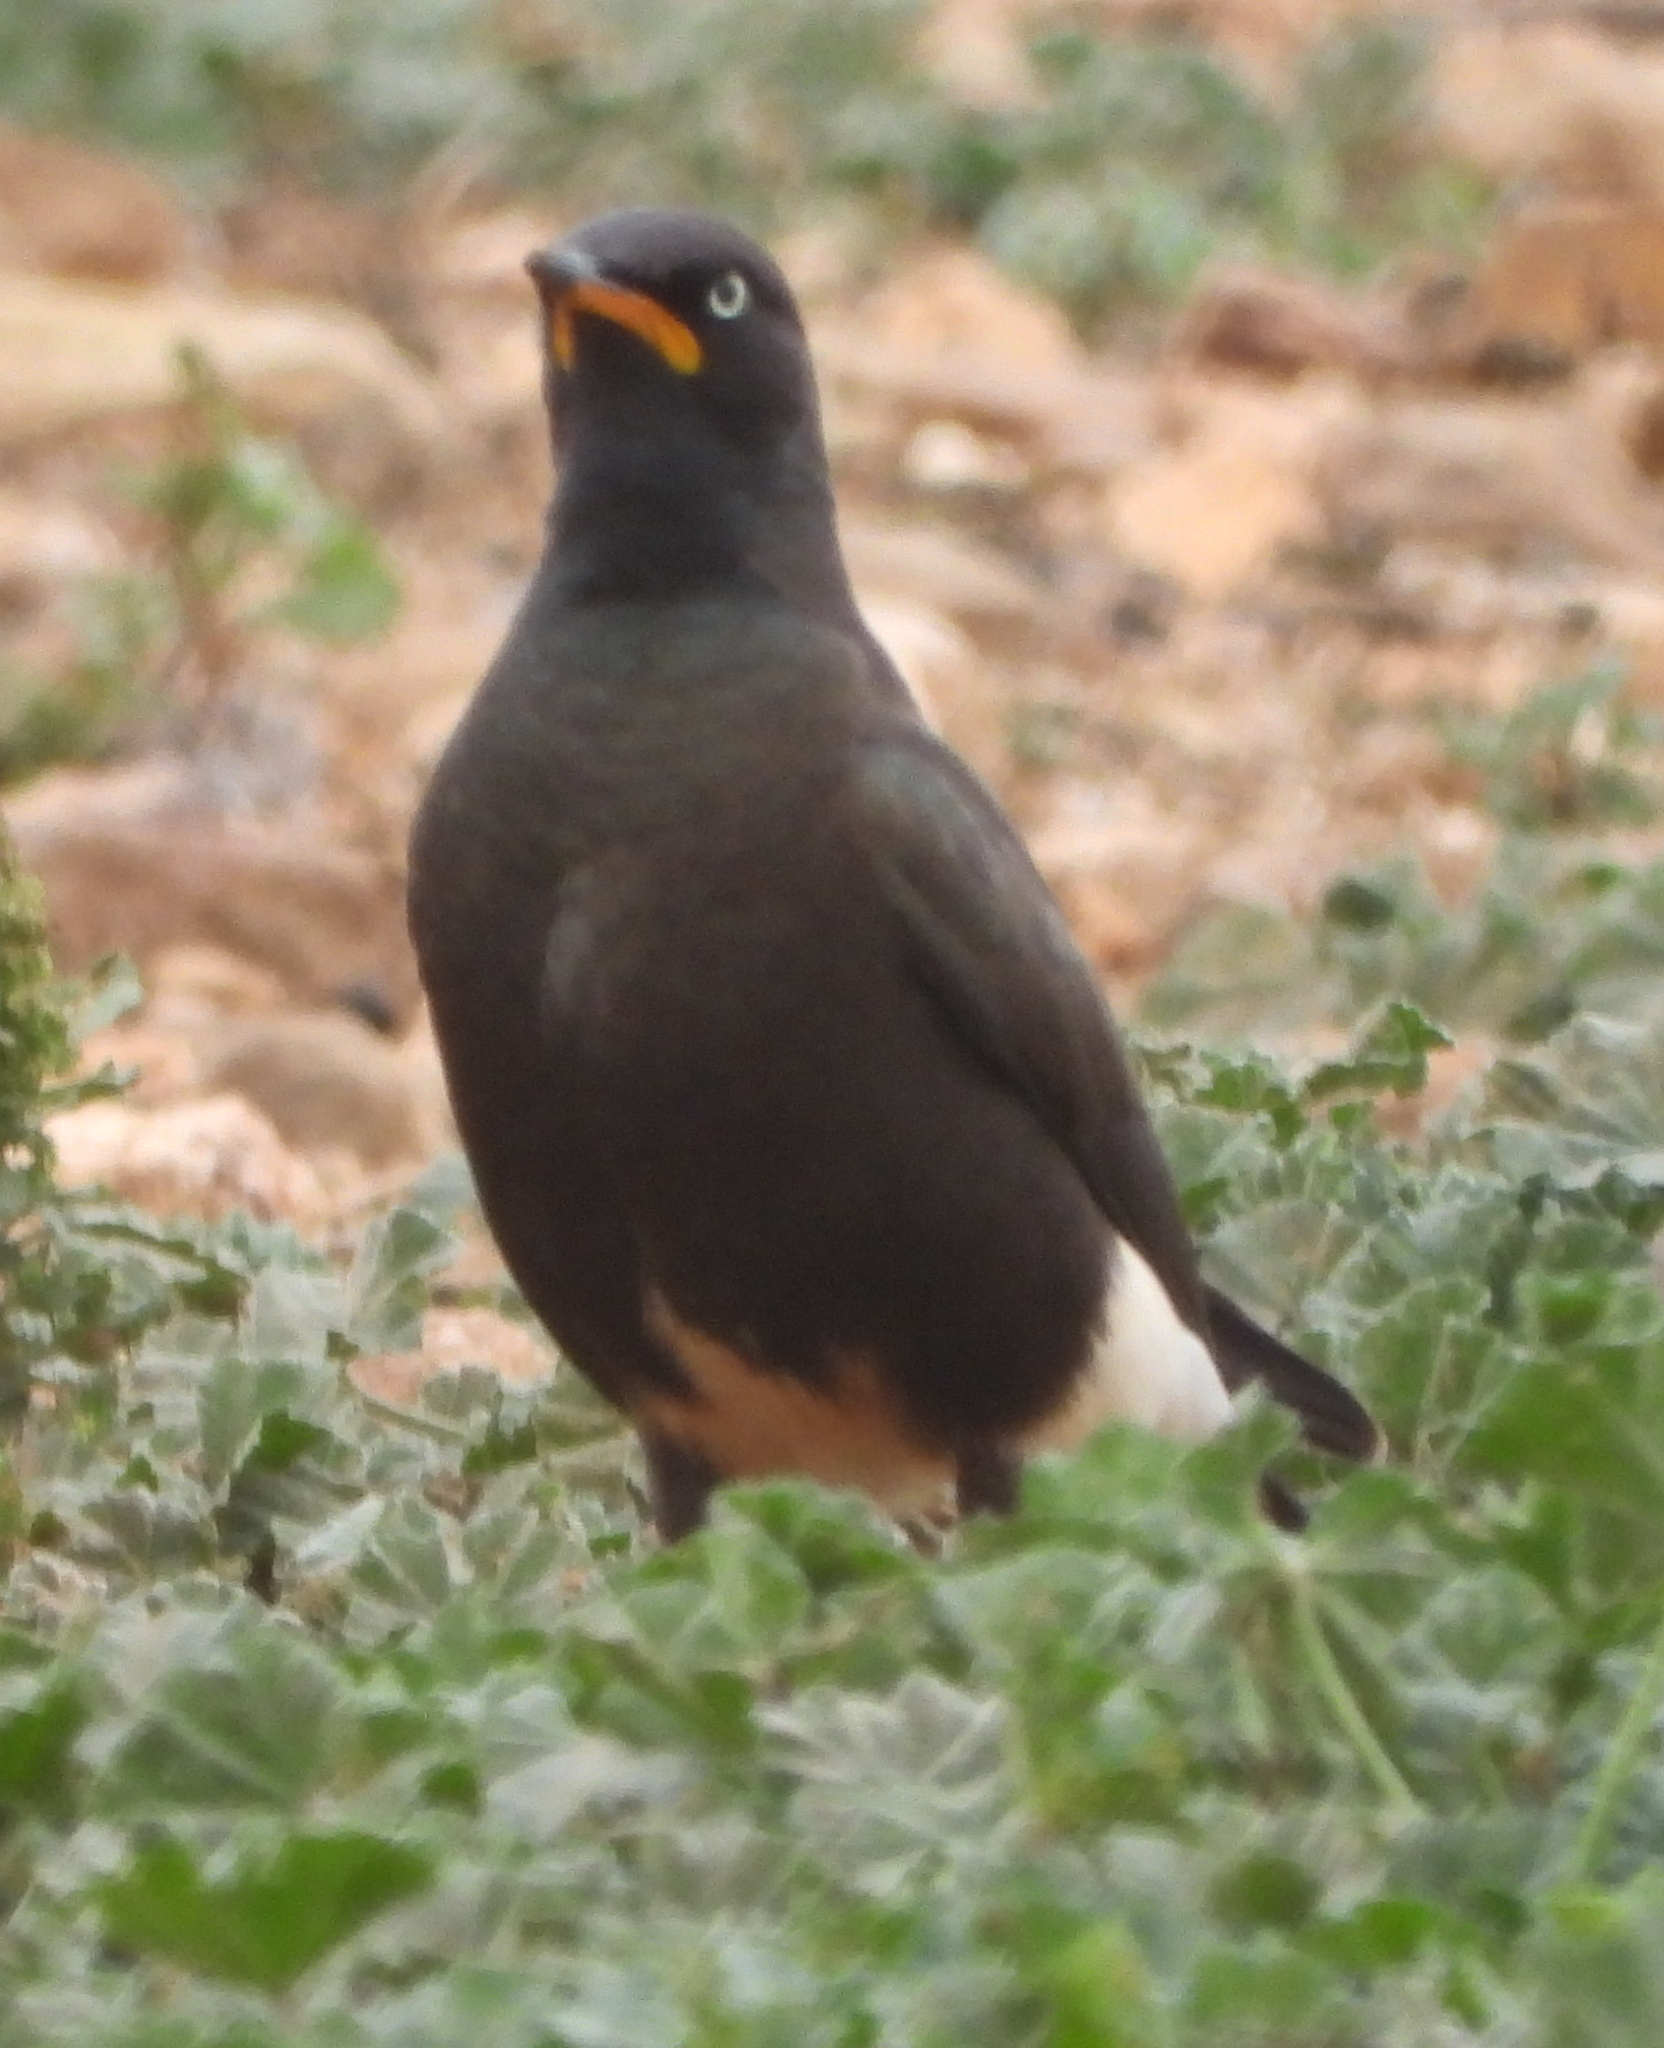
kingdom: Animalia
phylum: Chordata
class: Aves
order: Passeriformes
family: Sturnidae
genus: Lamprotornis
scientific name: Lamprotornis bicolor
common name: Pied starling
